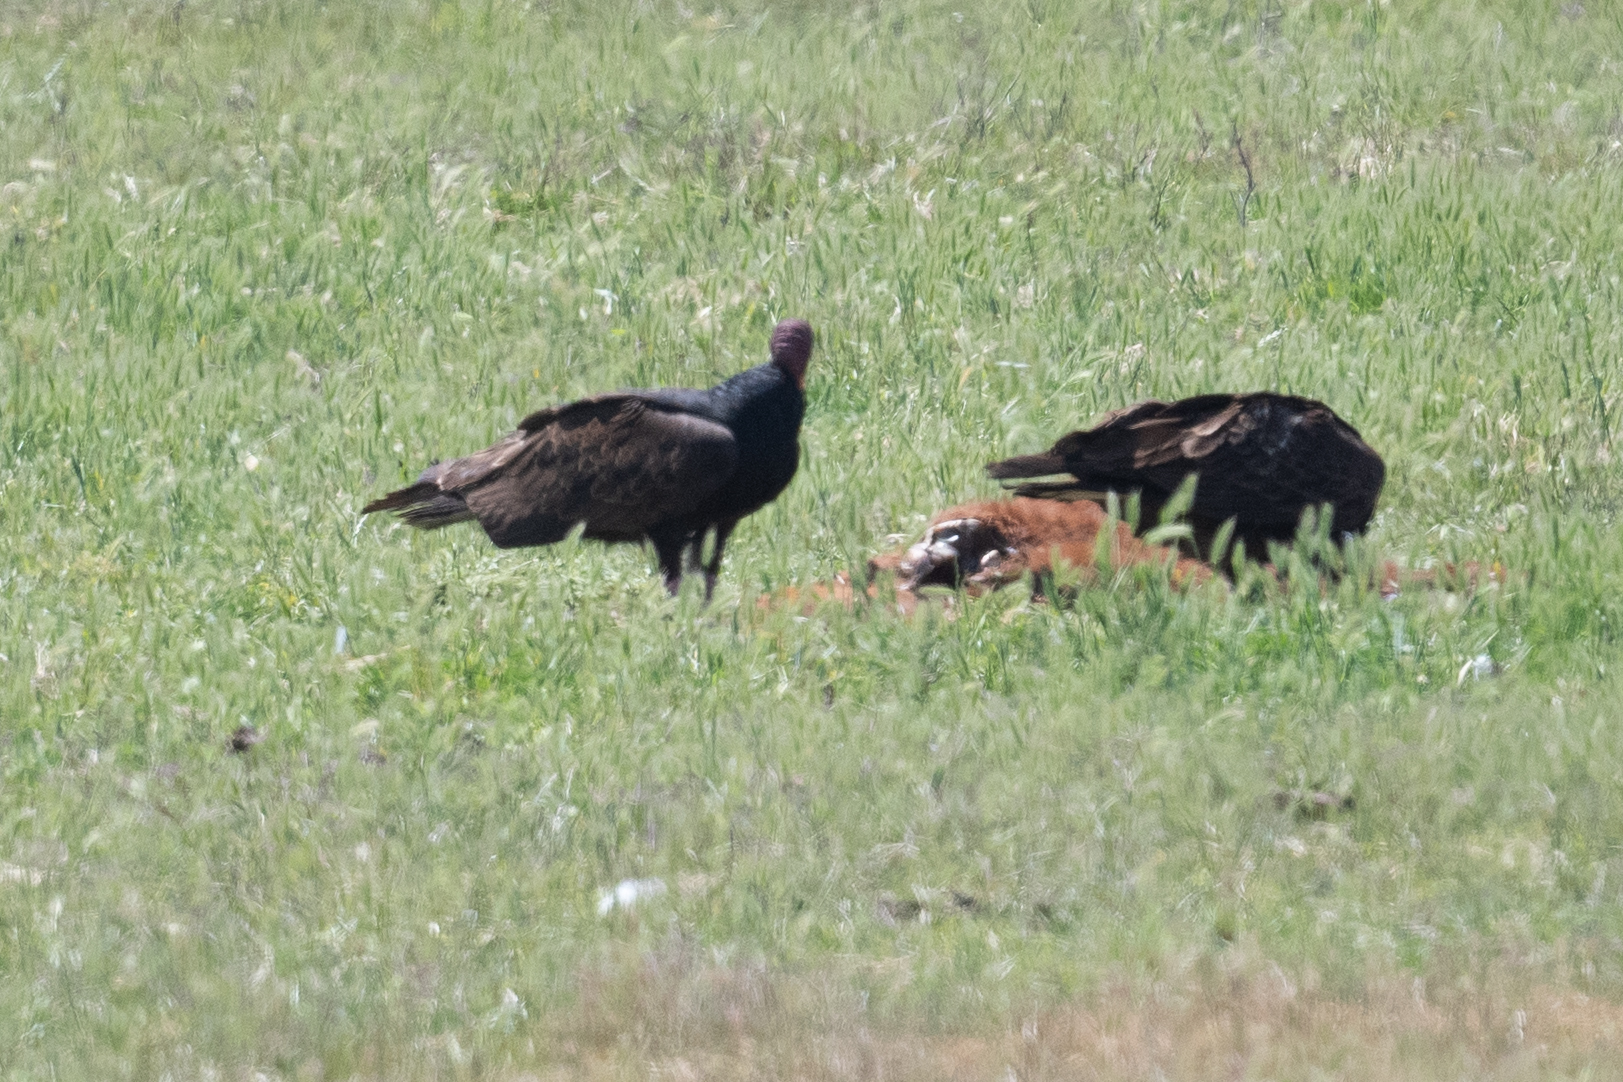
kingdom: Animalia
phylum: Chordata
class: Aves
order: Accipitriformes
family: Cathartidae
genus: Cathartes
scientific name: Cathartes aura
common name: Turkey vulture
